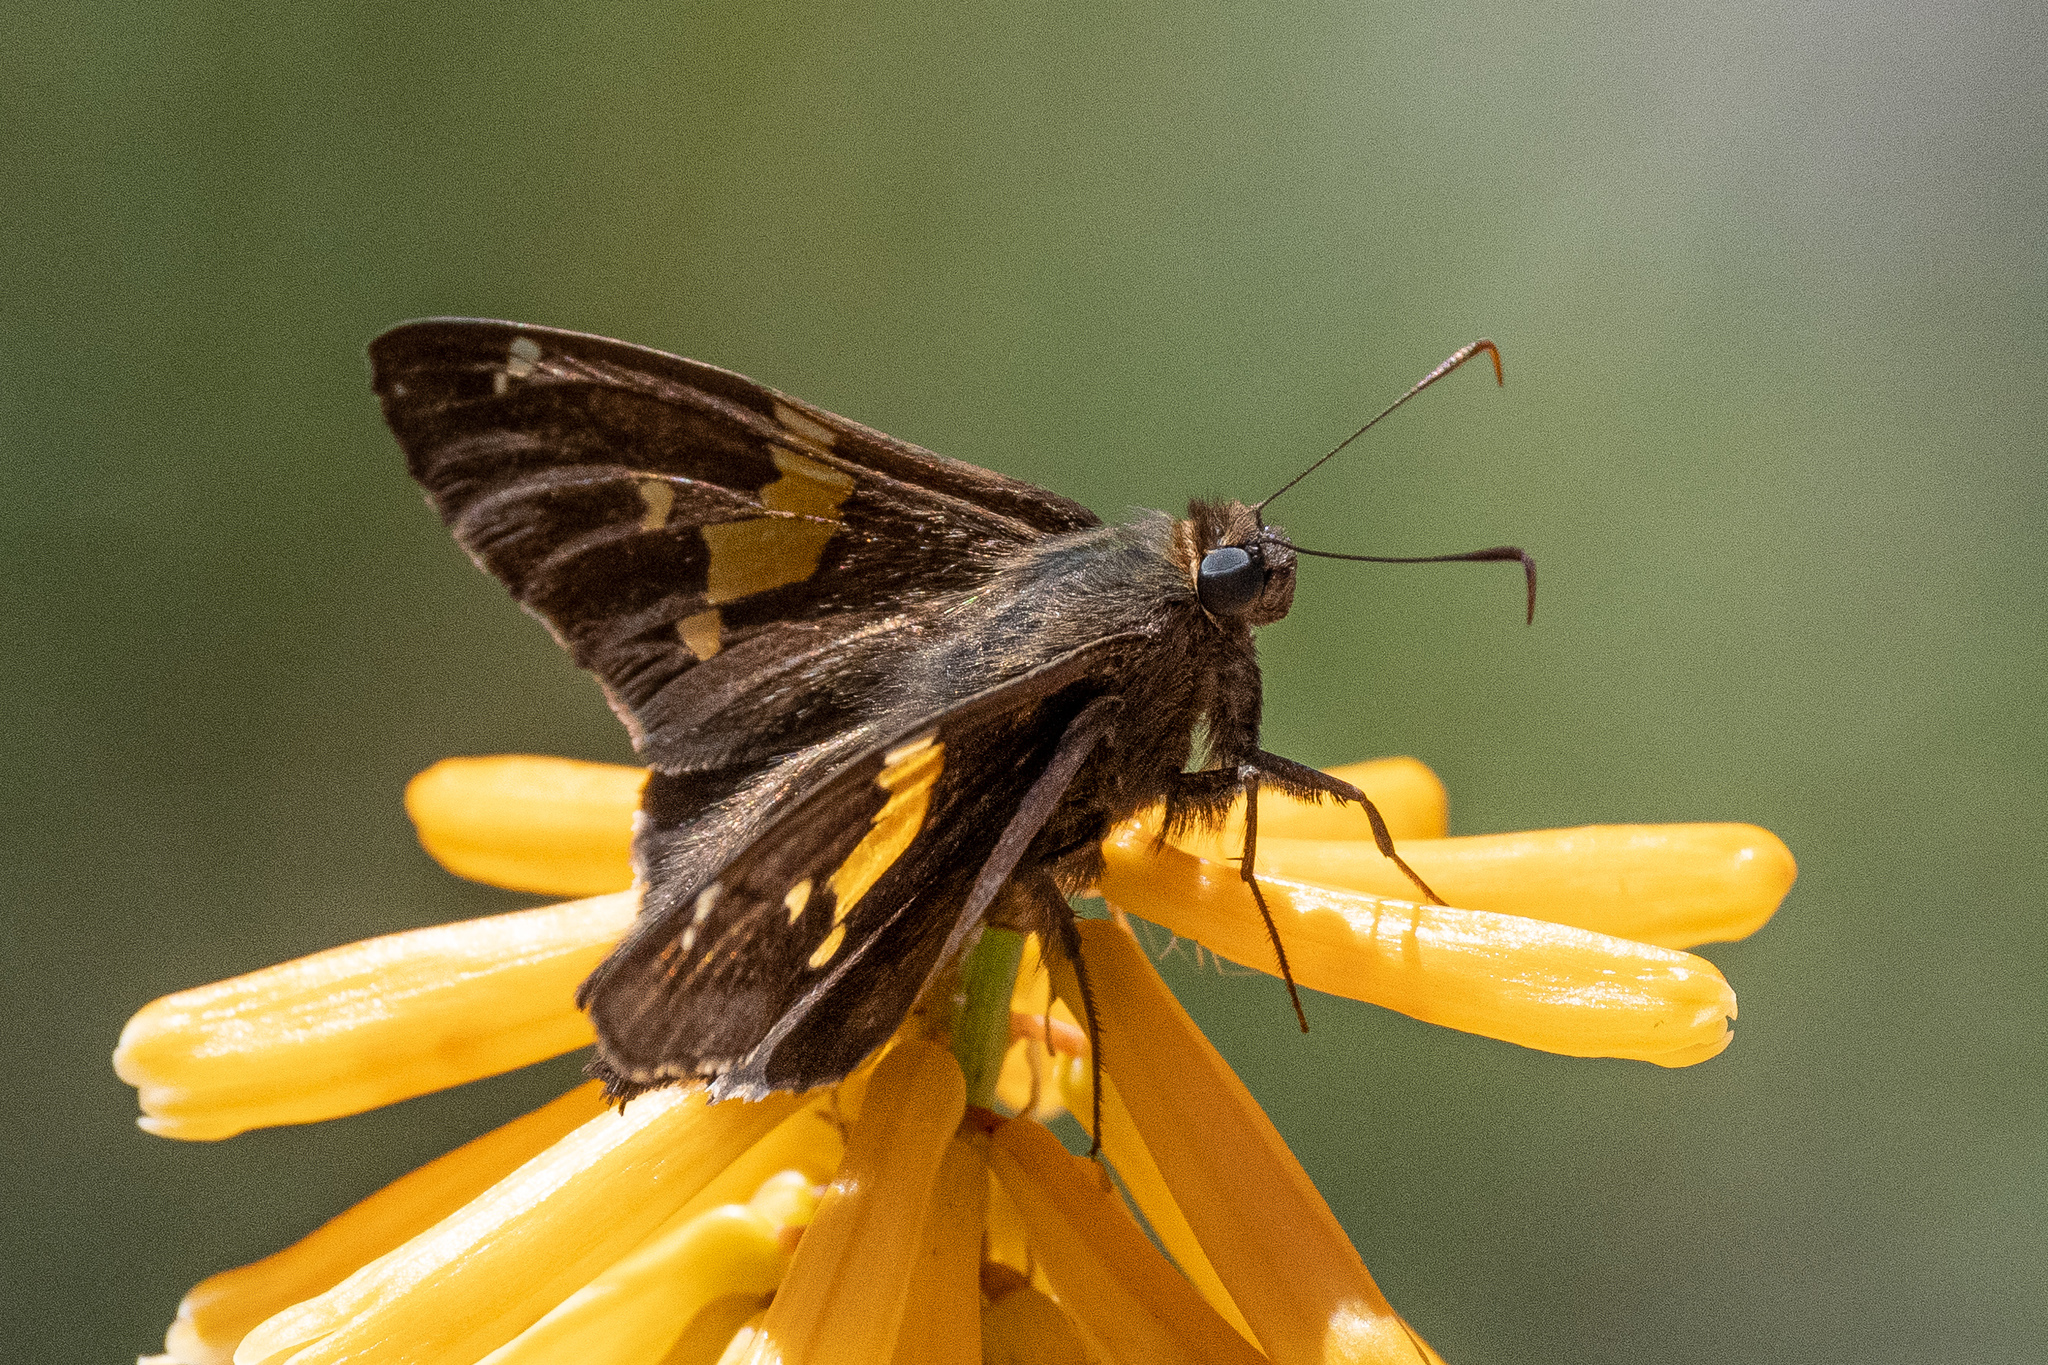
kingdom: Animalia
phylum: Arthropoda
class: Insecta
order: Lepidoptera
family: Hesperiidae
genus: Epargyreus
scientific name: Epargyreus clarus
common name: Silver-spotted skipper
